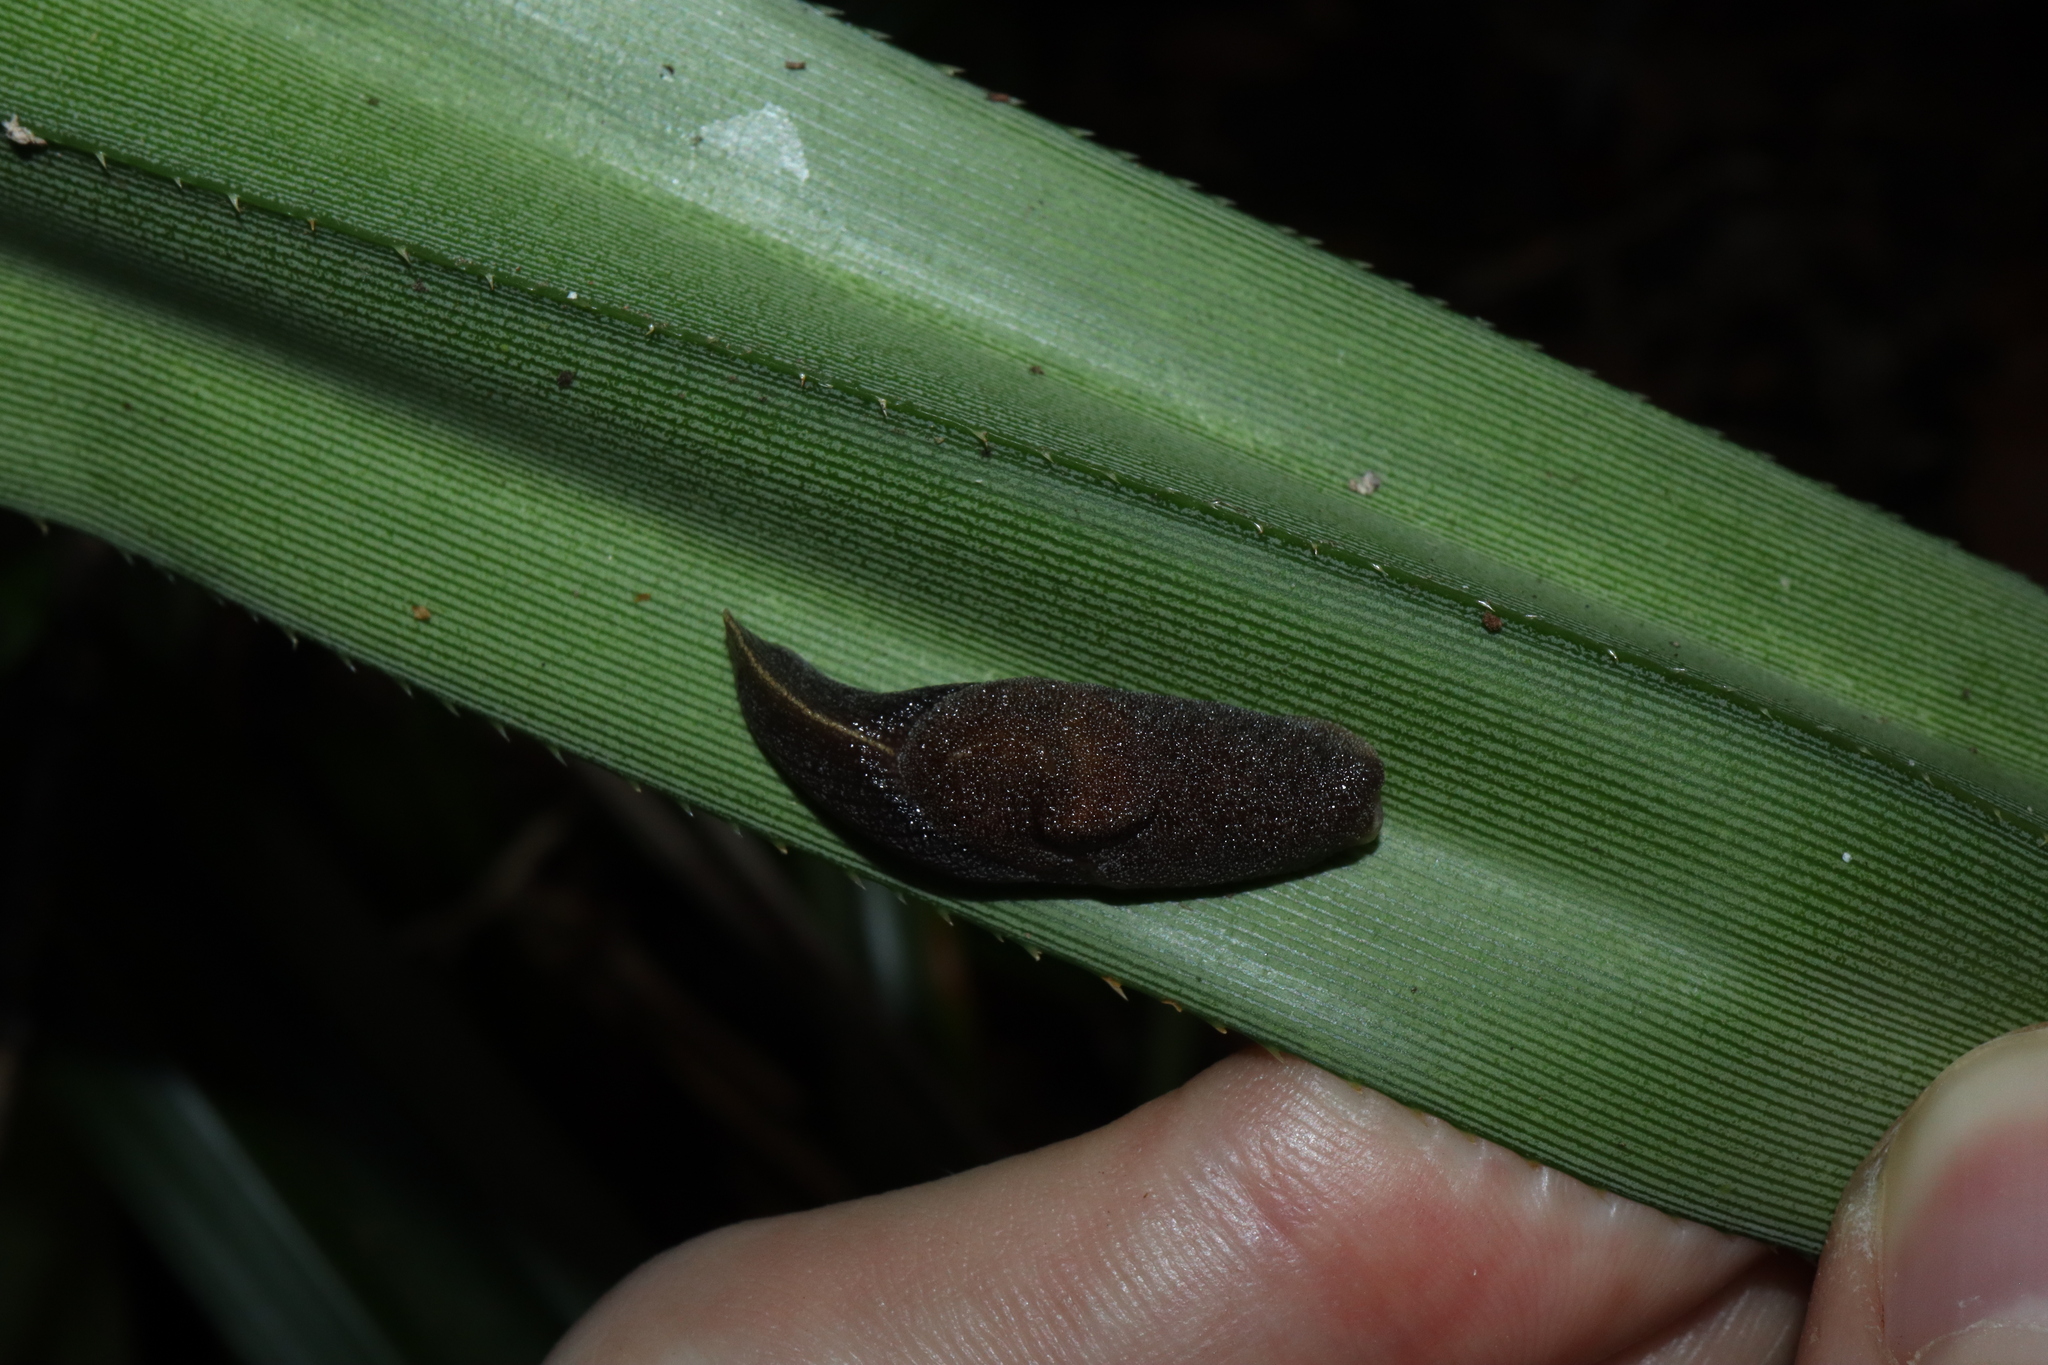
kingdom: Animalia
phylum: Mollusca
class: Gastropoda
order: Stylommatophora
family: Helicarionidae
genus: Parmacochlea
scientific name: Parmacochlea furca
